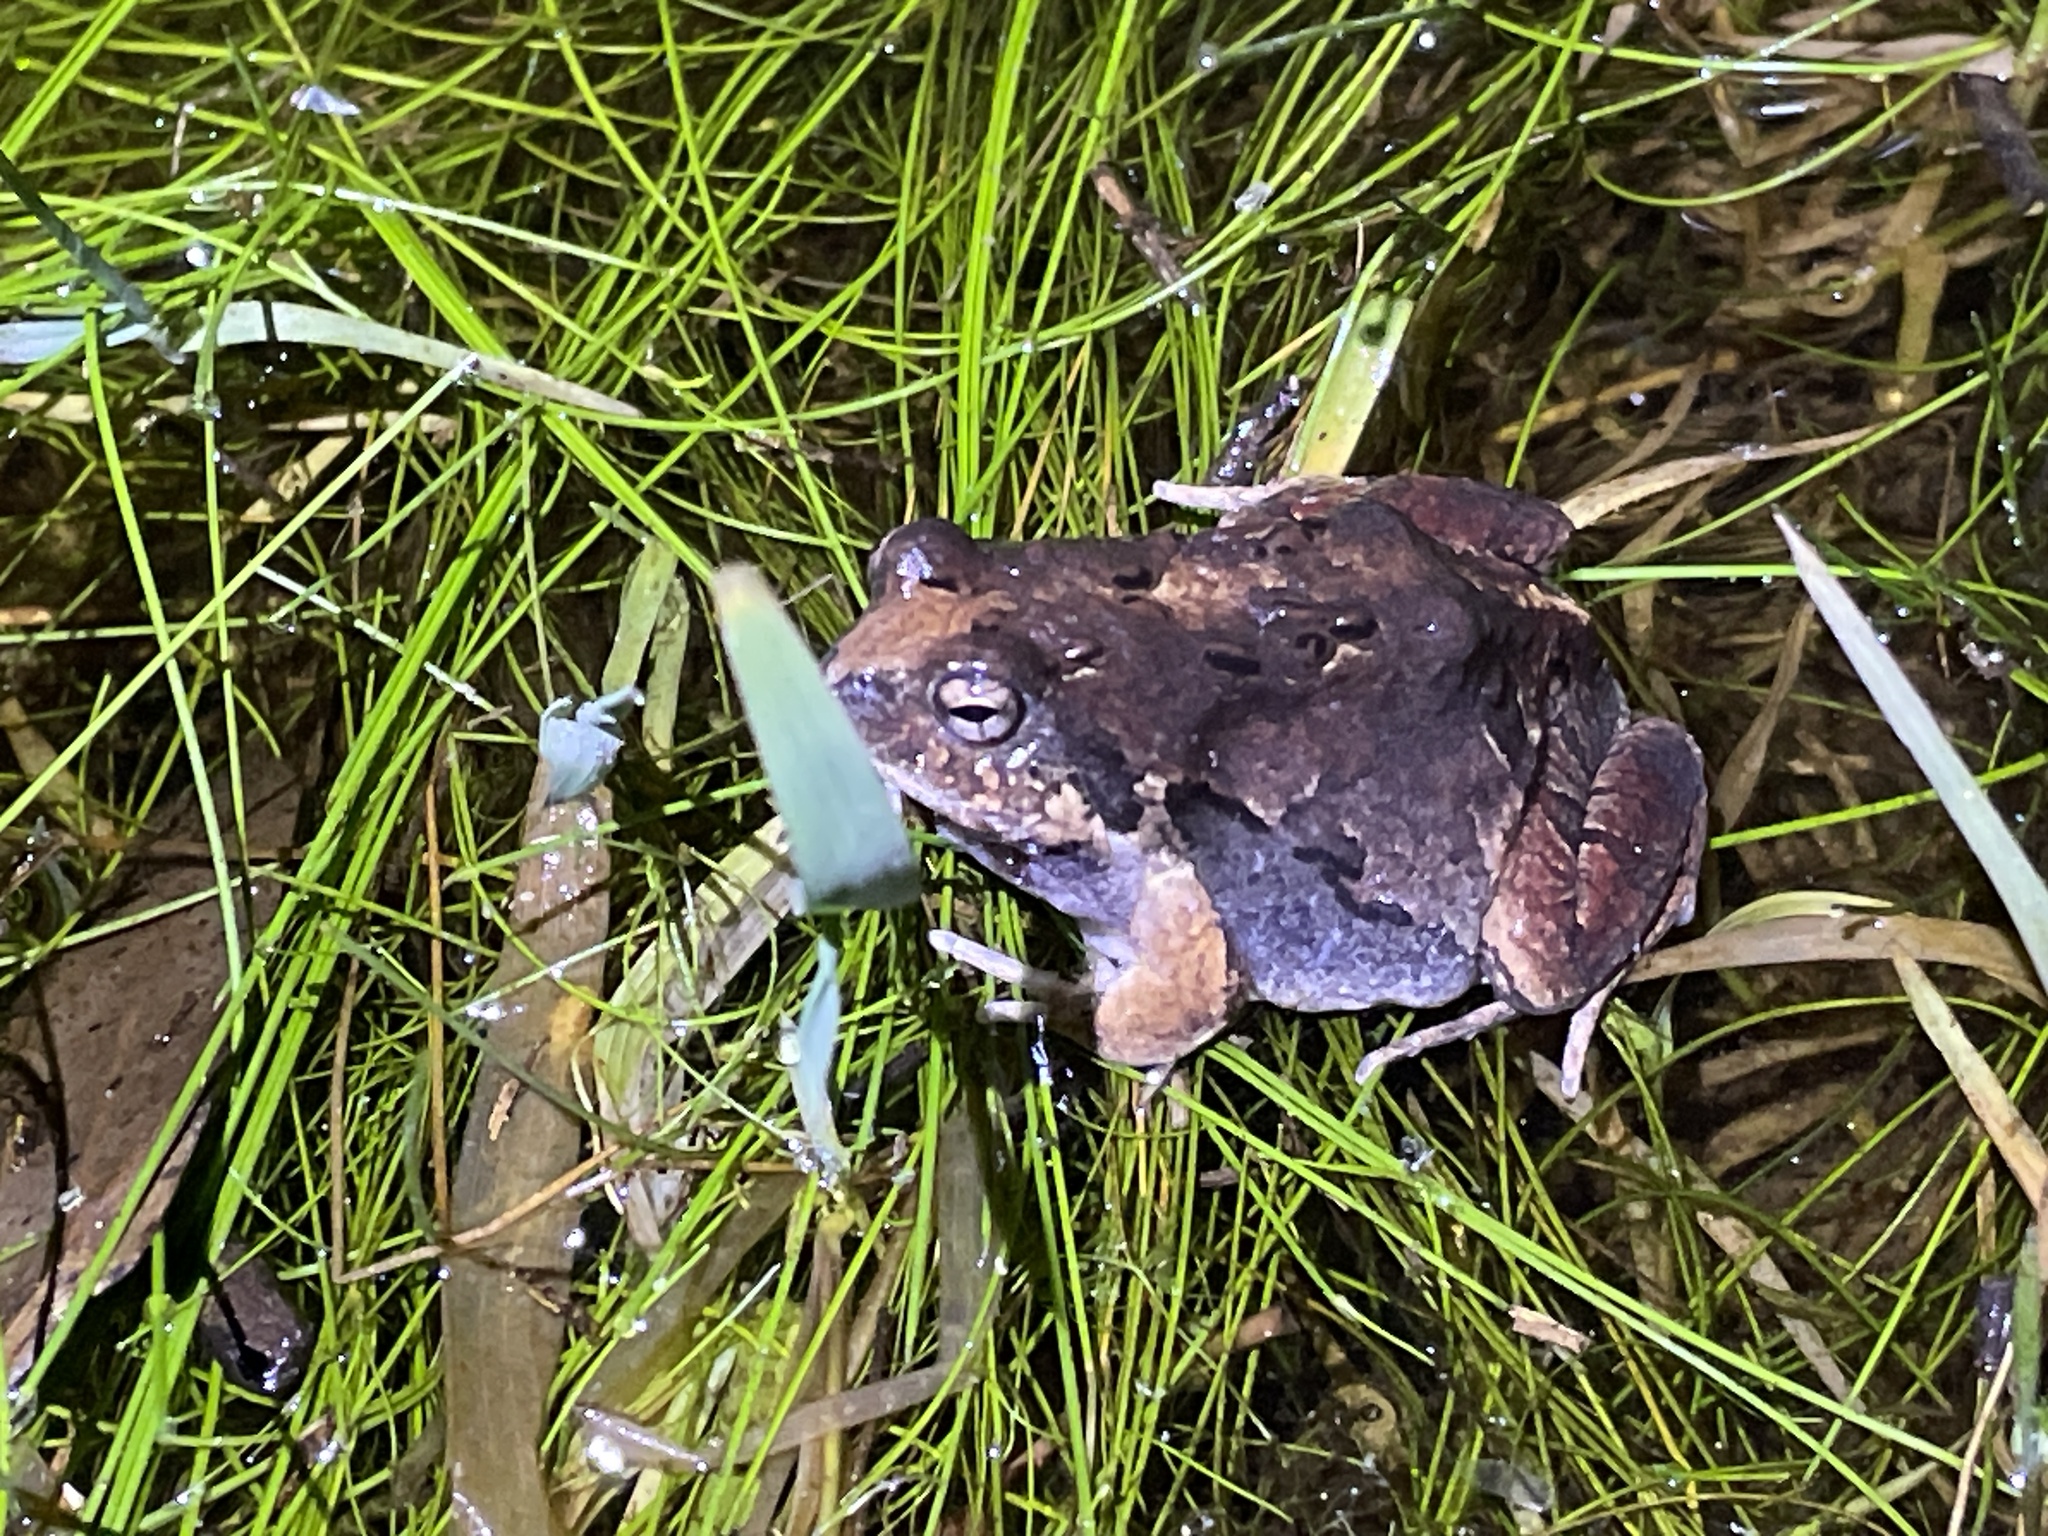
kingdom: Animalia
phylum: Chordata
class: Amphibia
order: Anura
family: Leptodactylidae
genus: Physalaemus
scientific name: Physalaemus biligonigerus
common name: Weeping frog
